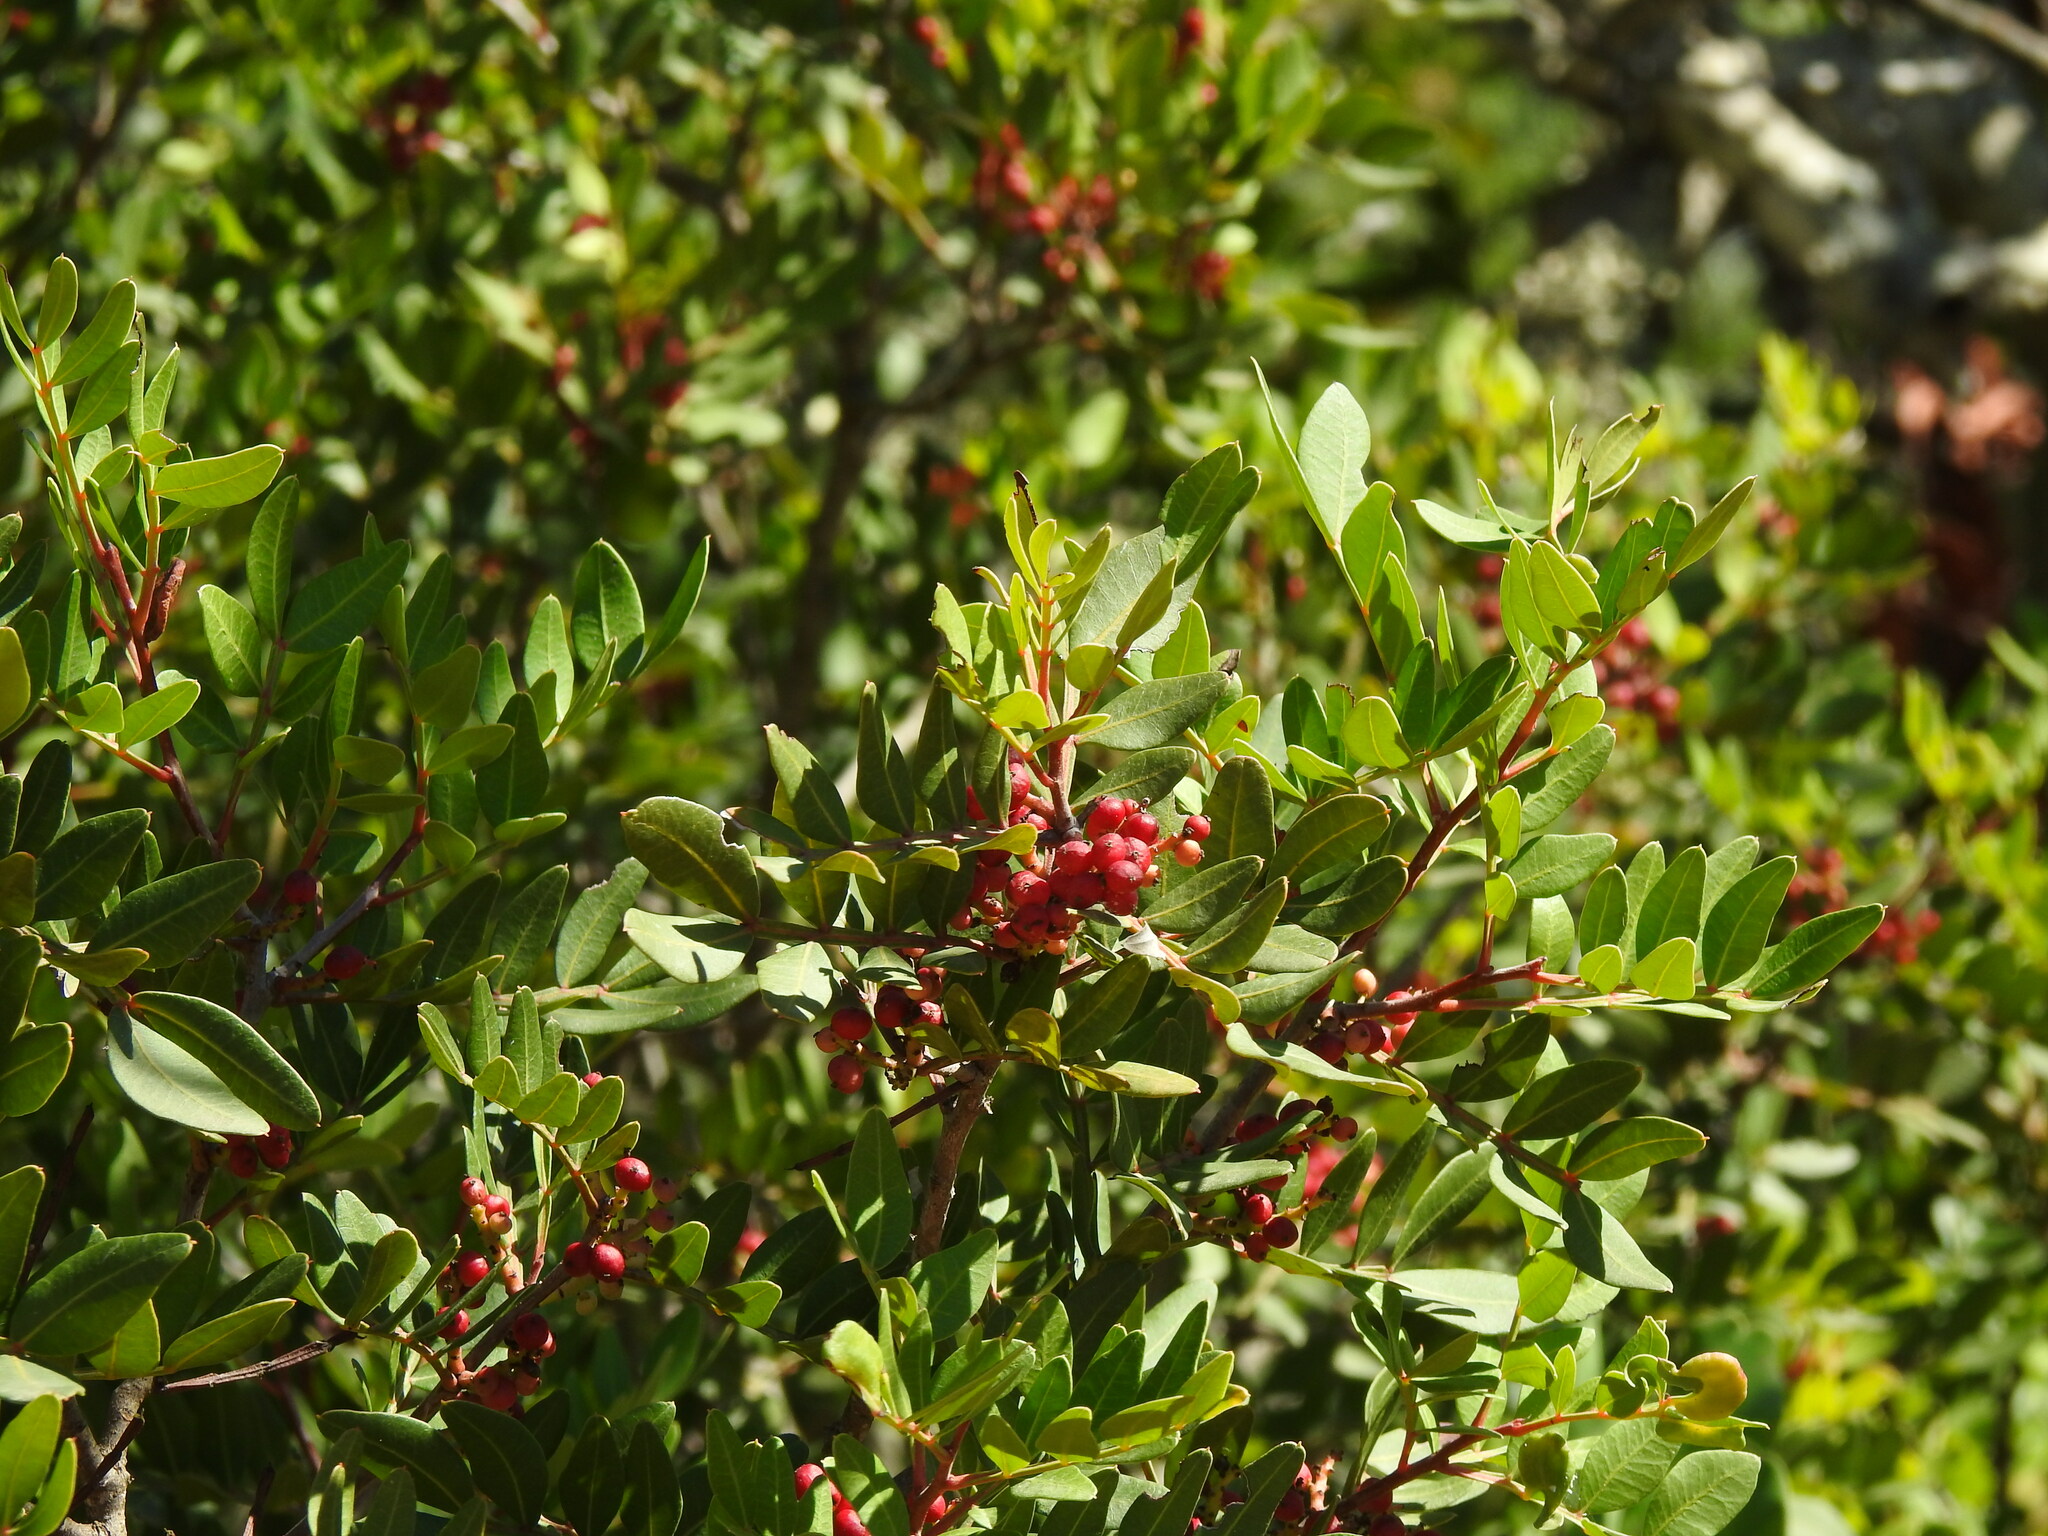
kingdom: Plantae
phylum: Tracheophyta
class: Magnoliopsida
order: Sapindales
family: Anacardiaceae
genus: Pistacia
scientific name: Pistacia lentiscus
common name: Lentisk
